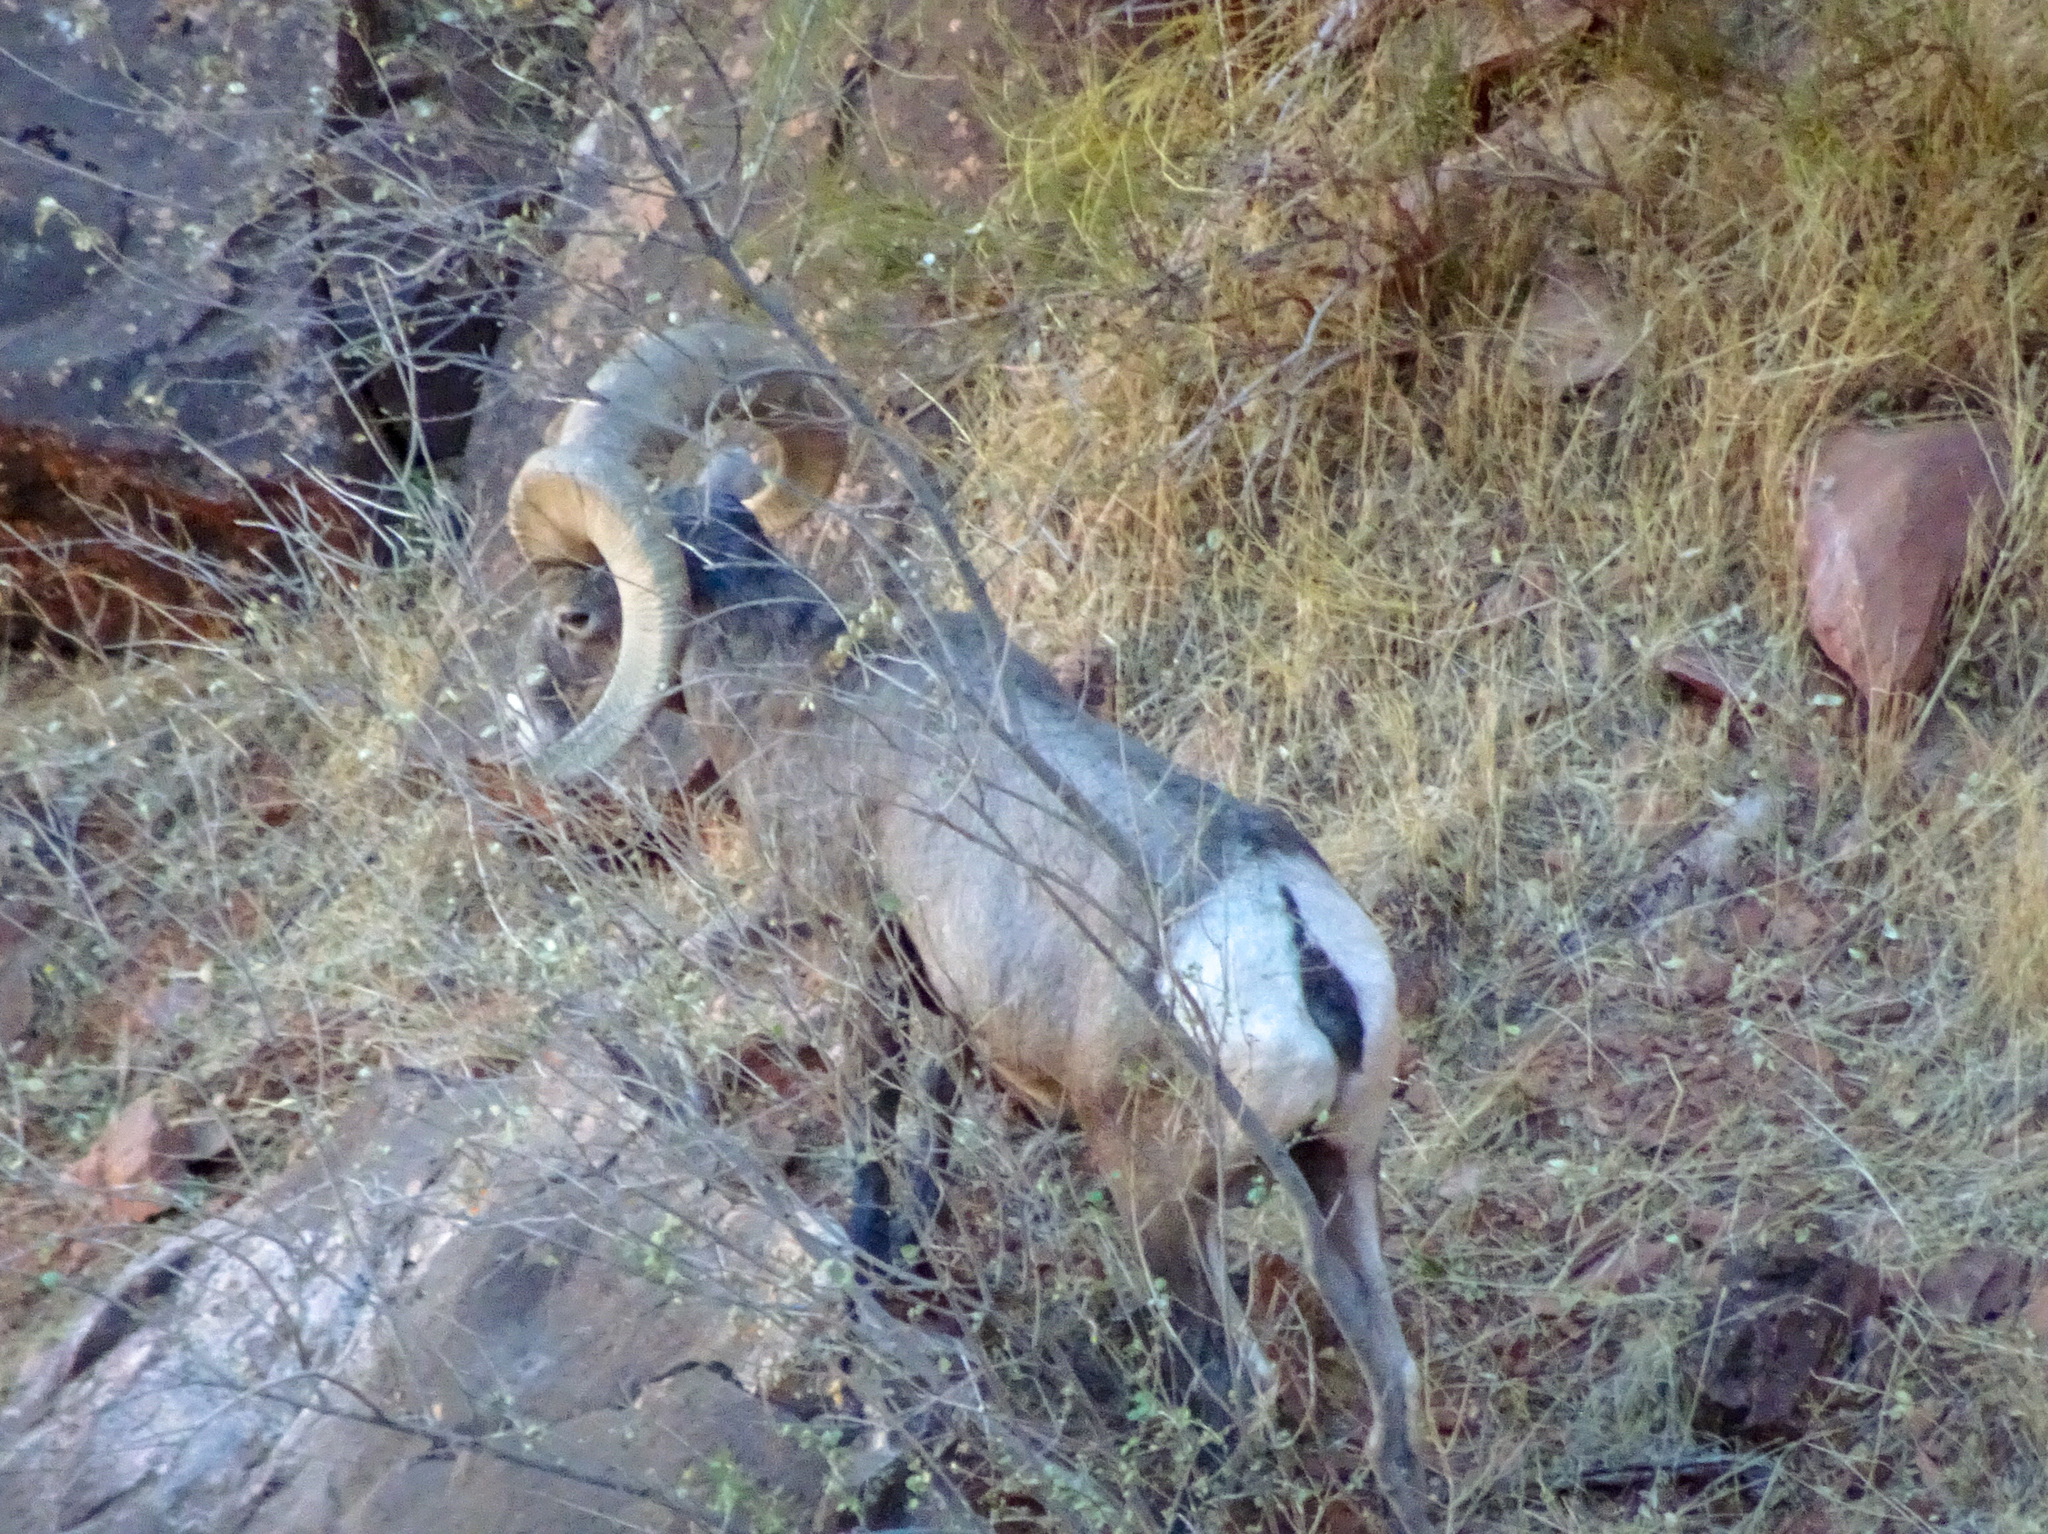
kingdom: Animalia
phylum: Chordata
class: Mammalia
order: Artiodactyla
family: Bovidae
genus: Ovis
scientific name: Ovis canadensis
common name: Bighorn sheep
